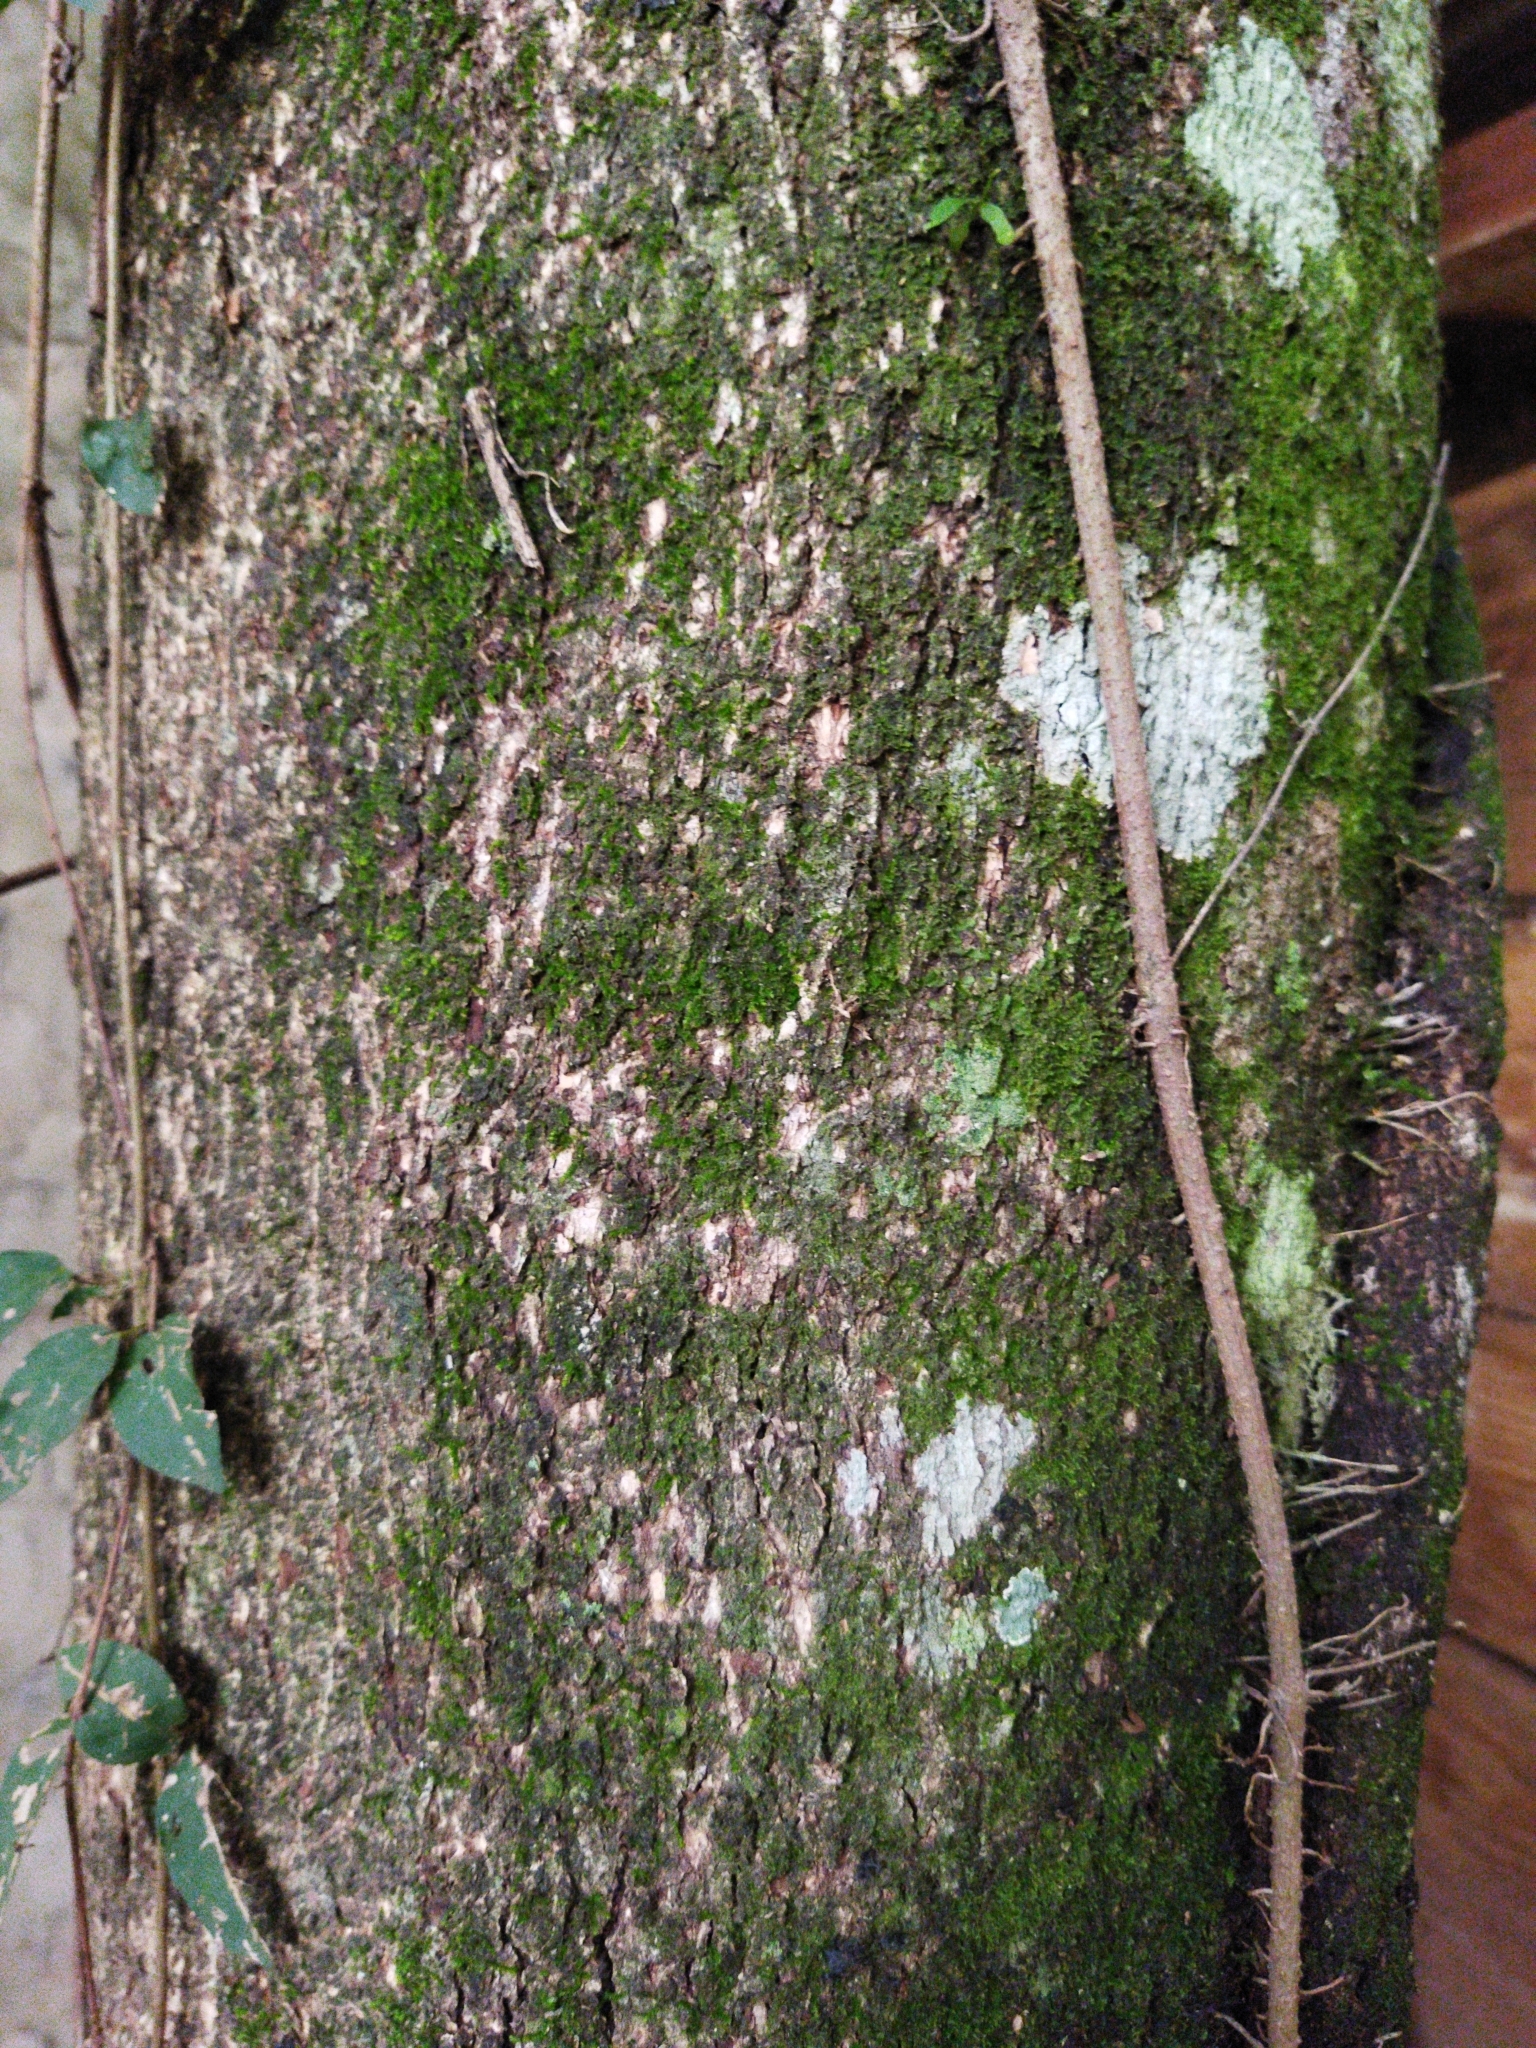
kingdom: Plantae
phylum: Tracheophyta
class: Magnoliopsida
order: Malvales
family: Malvaceae
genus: Luehea
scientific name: Luehea divaricata
